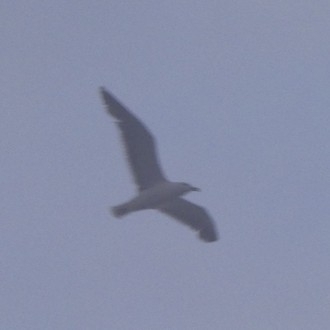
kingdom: Animalia
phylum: Chordata
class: Aves
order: Charadriiformes
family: Laridae
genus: Larus
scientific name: Larus marinus
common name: Great black-backed gull
